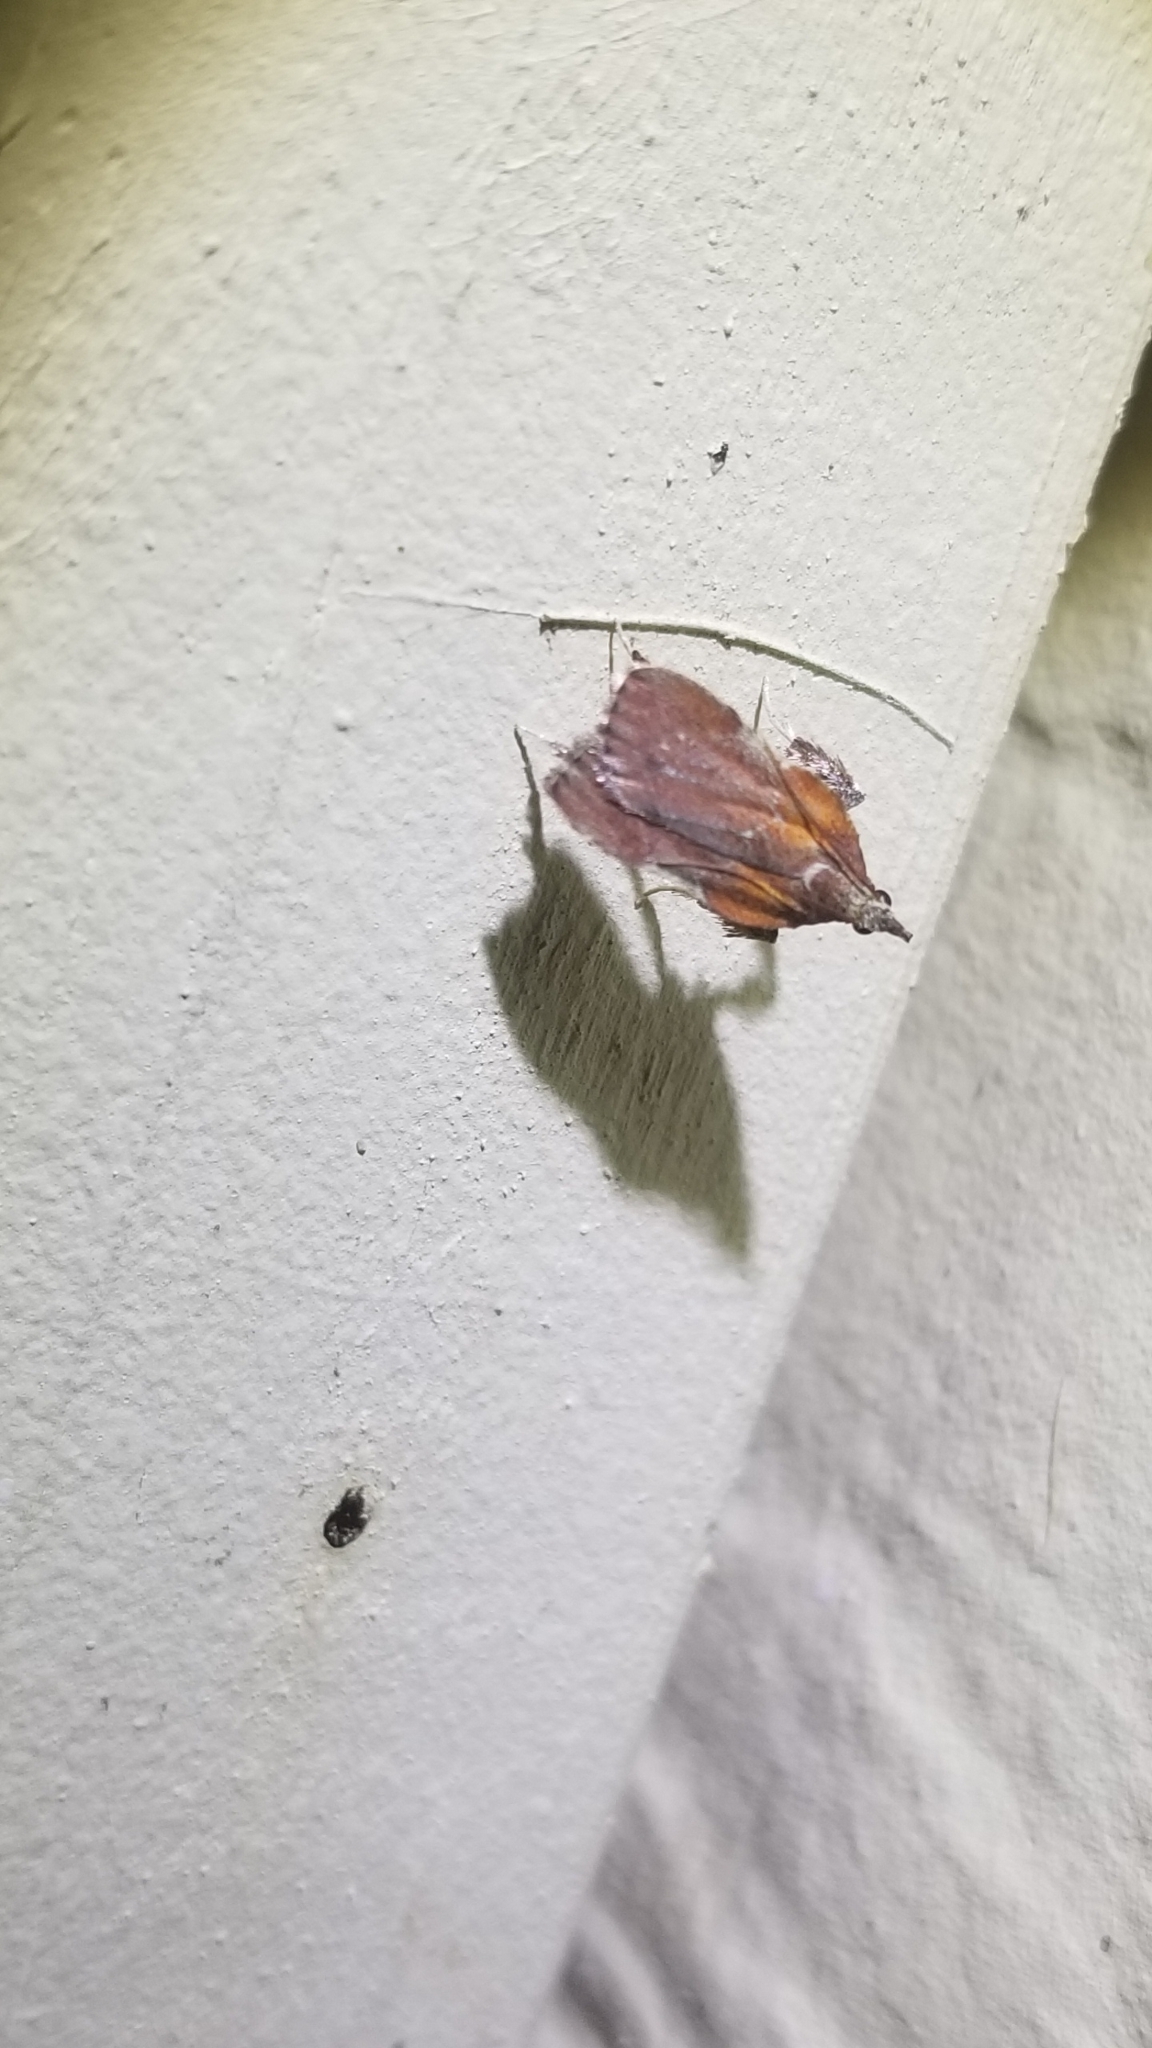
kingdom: Animalia
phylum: Arthropoda
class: Insecta
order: Lepidoptera
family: Pyralidae
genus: Galasa
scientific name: Galasa nigrinodis
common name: Boxwood leaftier moth
